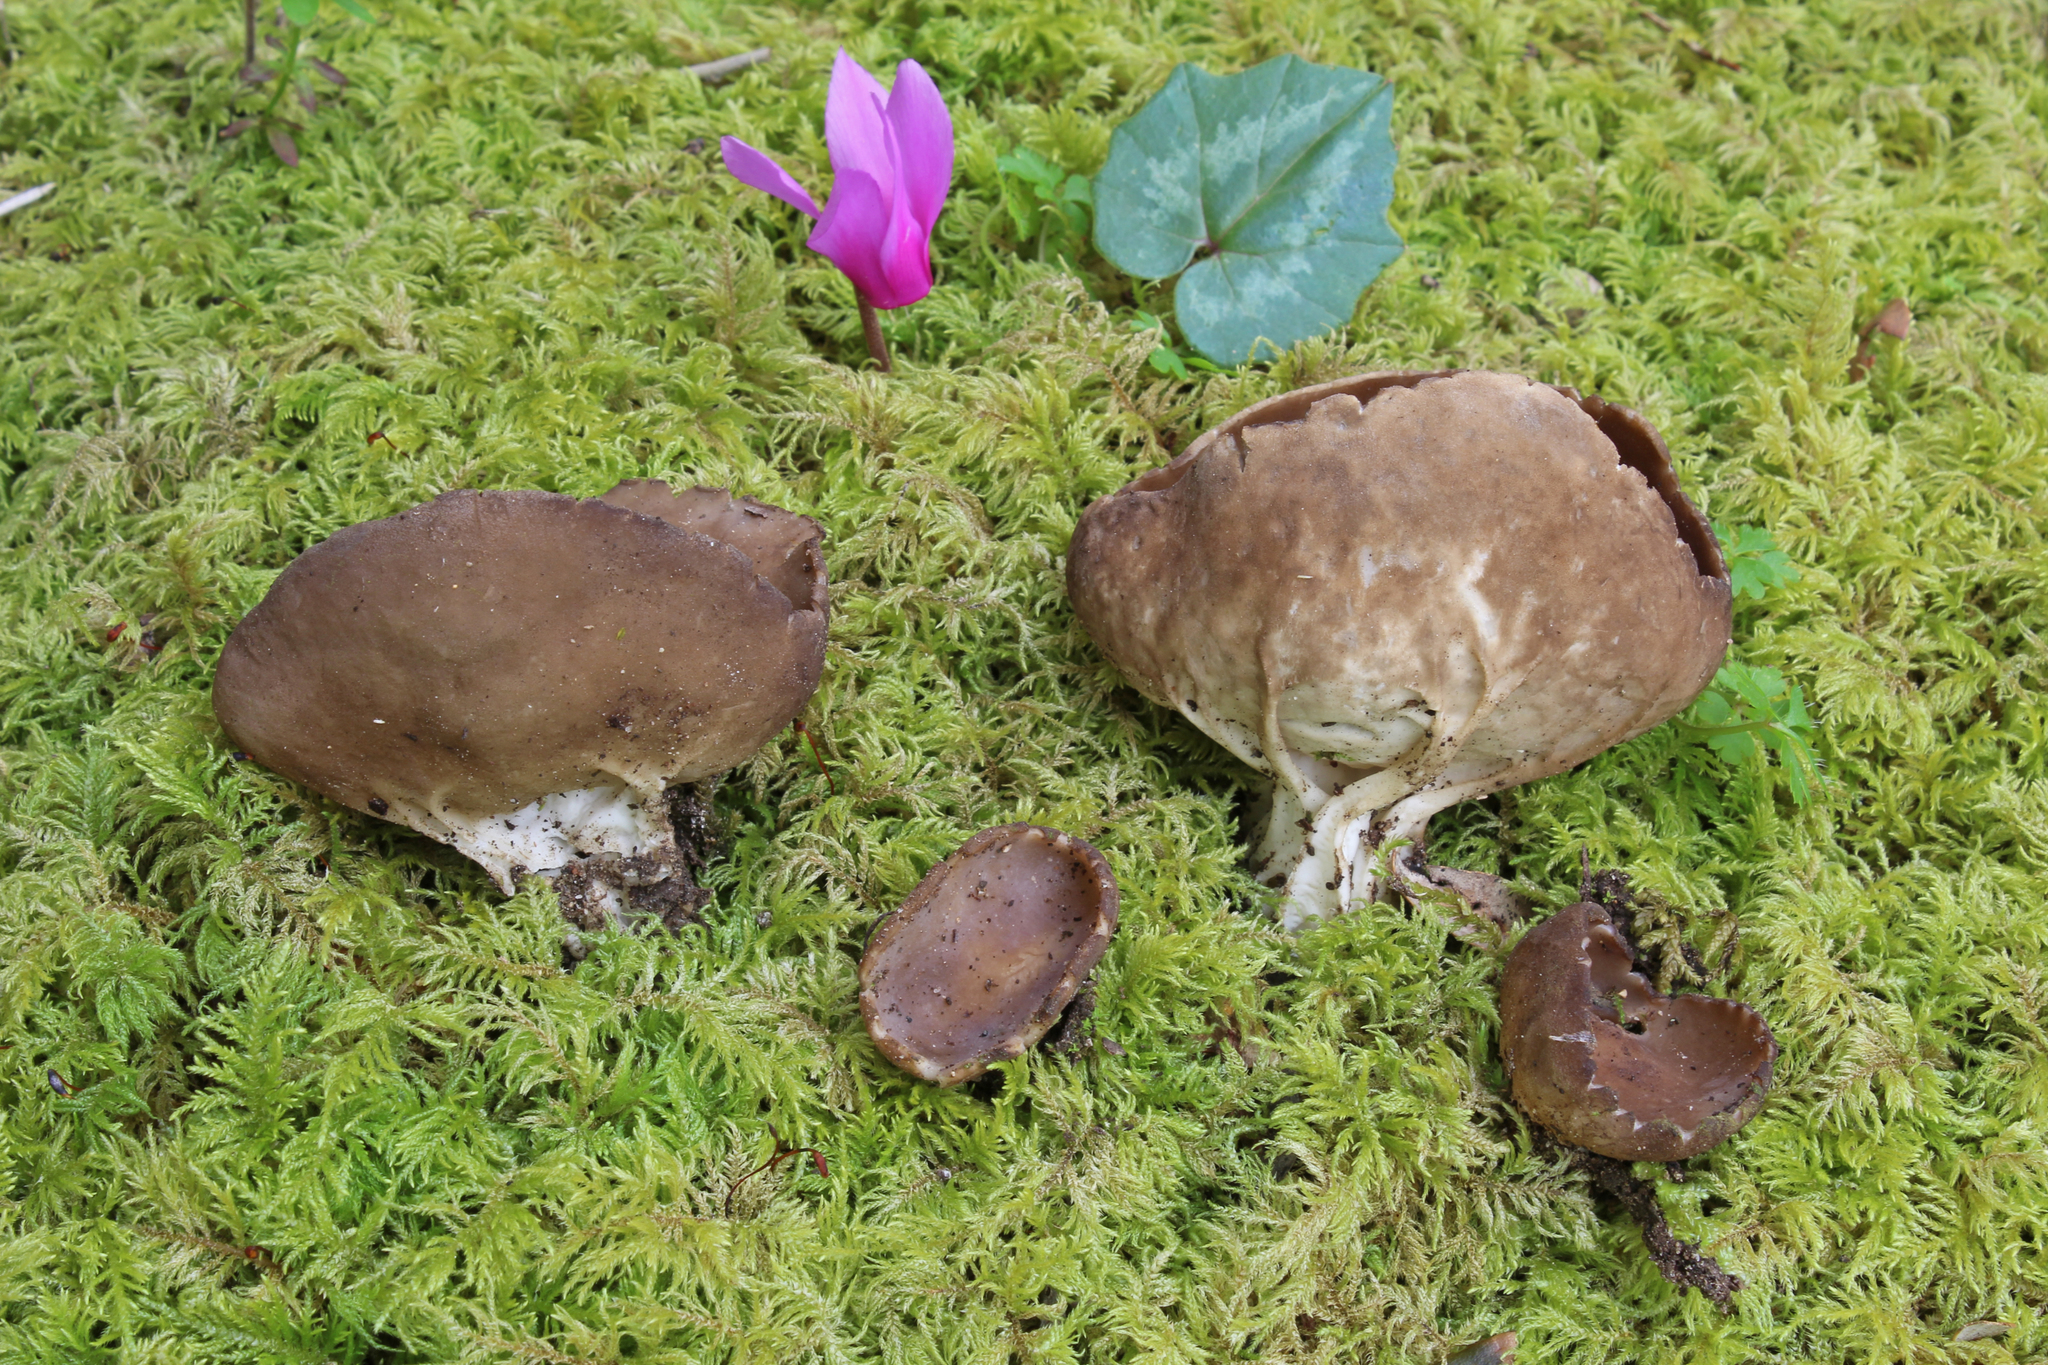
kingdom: Fungi
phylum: Ascomycota
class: Pezizomycetes
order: Pezizales
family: Helvellaceae
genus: Helvella
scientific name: Helvella acetabulum
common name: Vinegar cup
